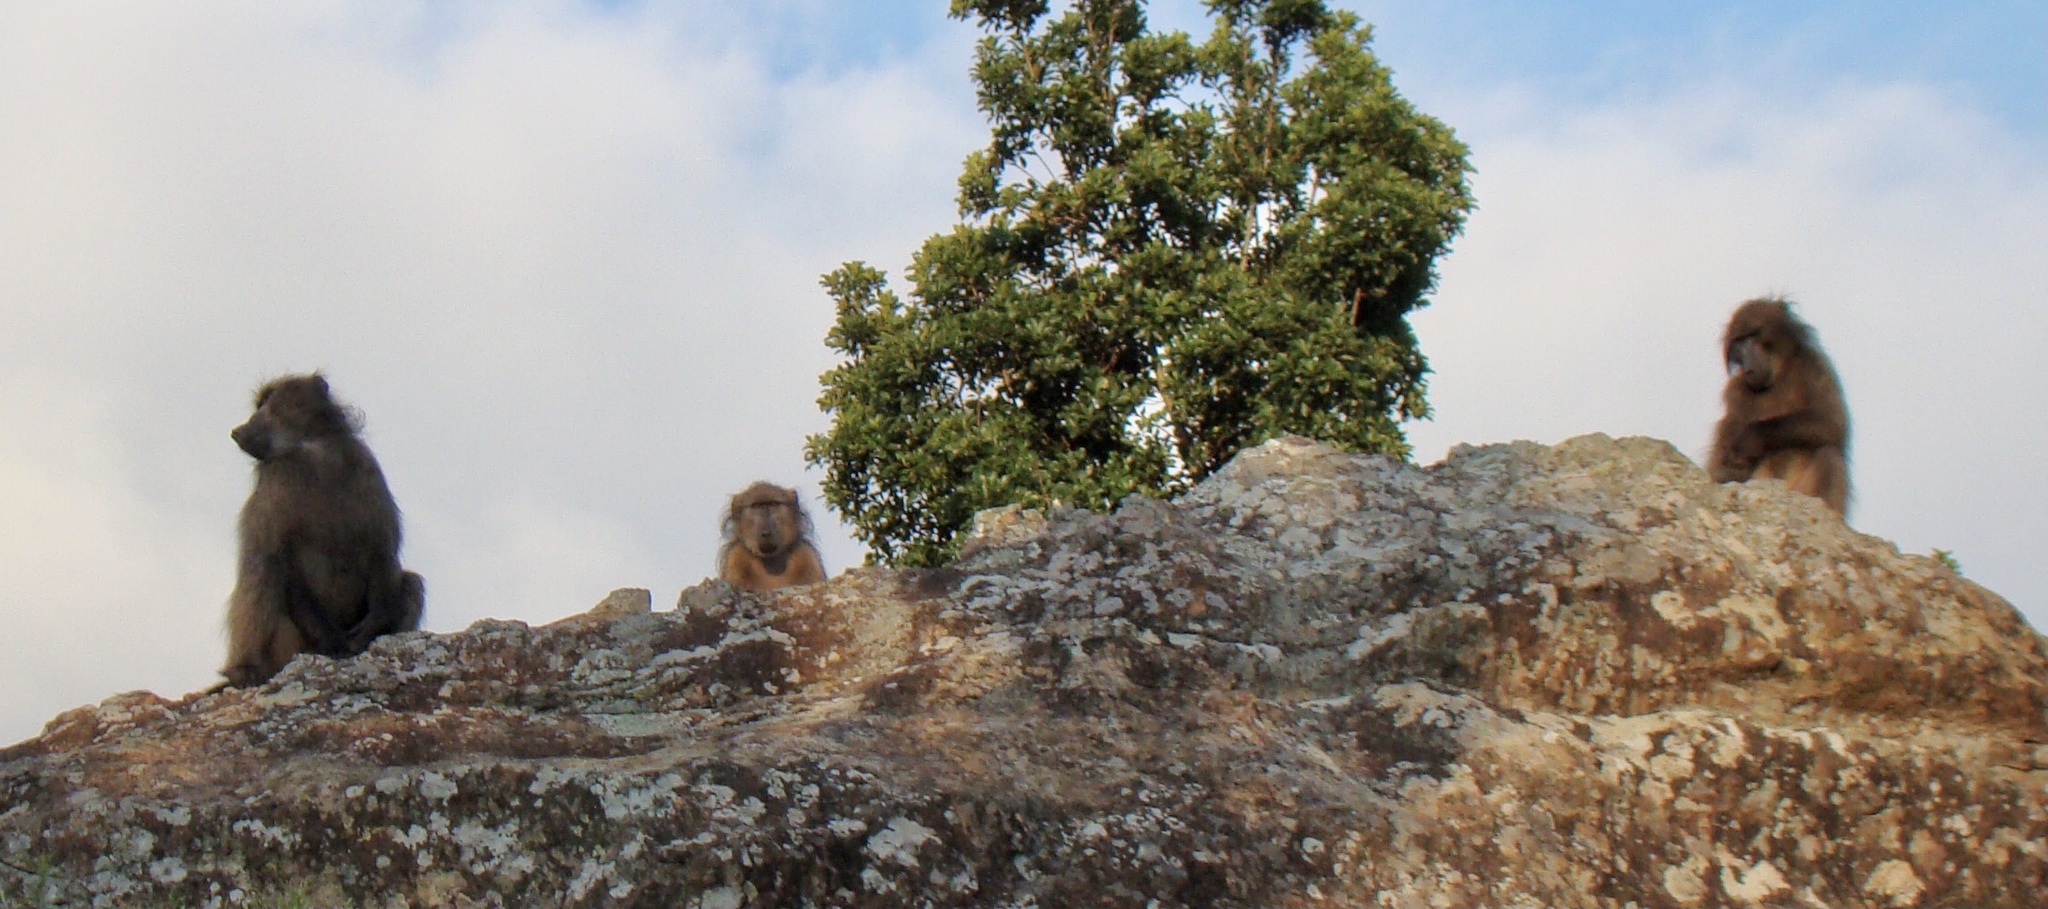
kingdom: Animalia
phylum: Chordata
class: Mammalia
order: Primates
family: Cercopithecidae
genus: Papio
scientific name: Papio ursinus
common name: Chacma baboon
